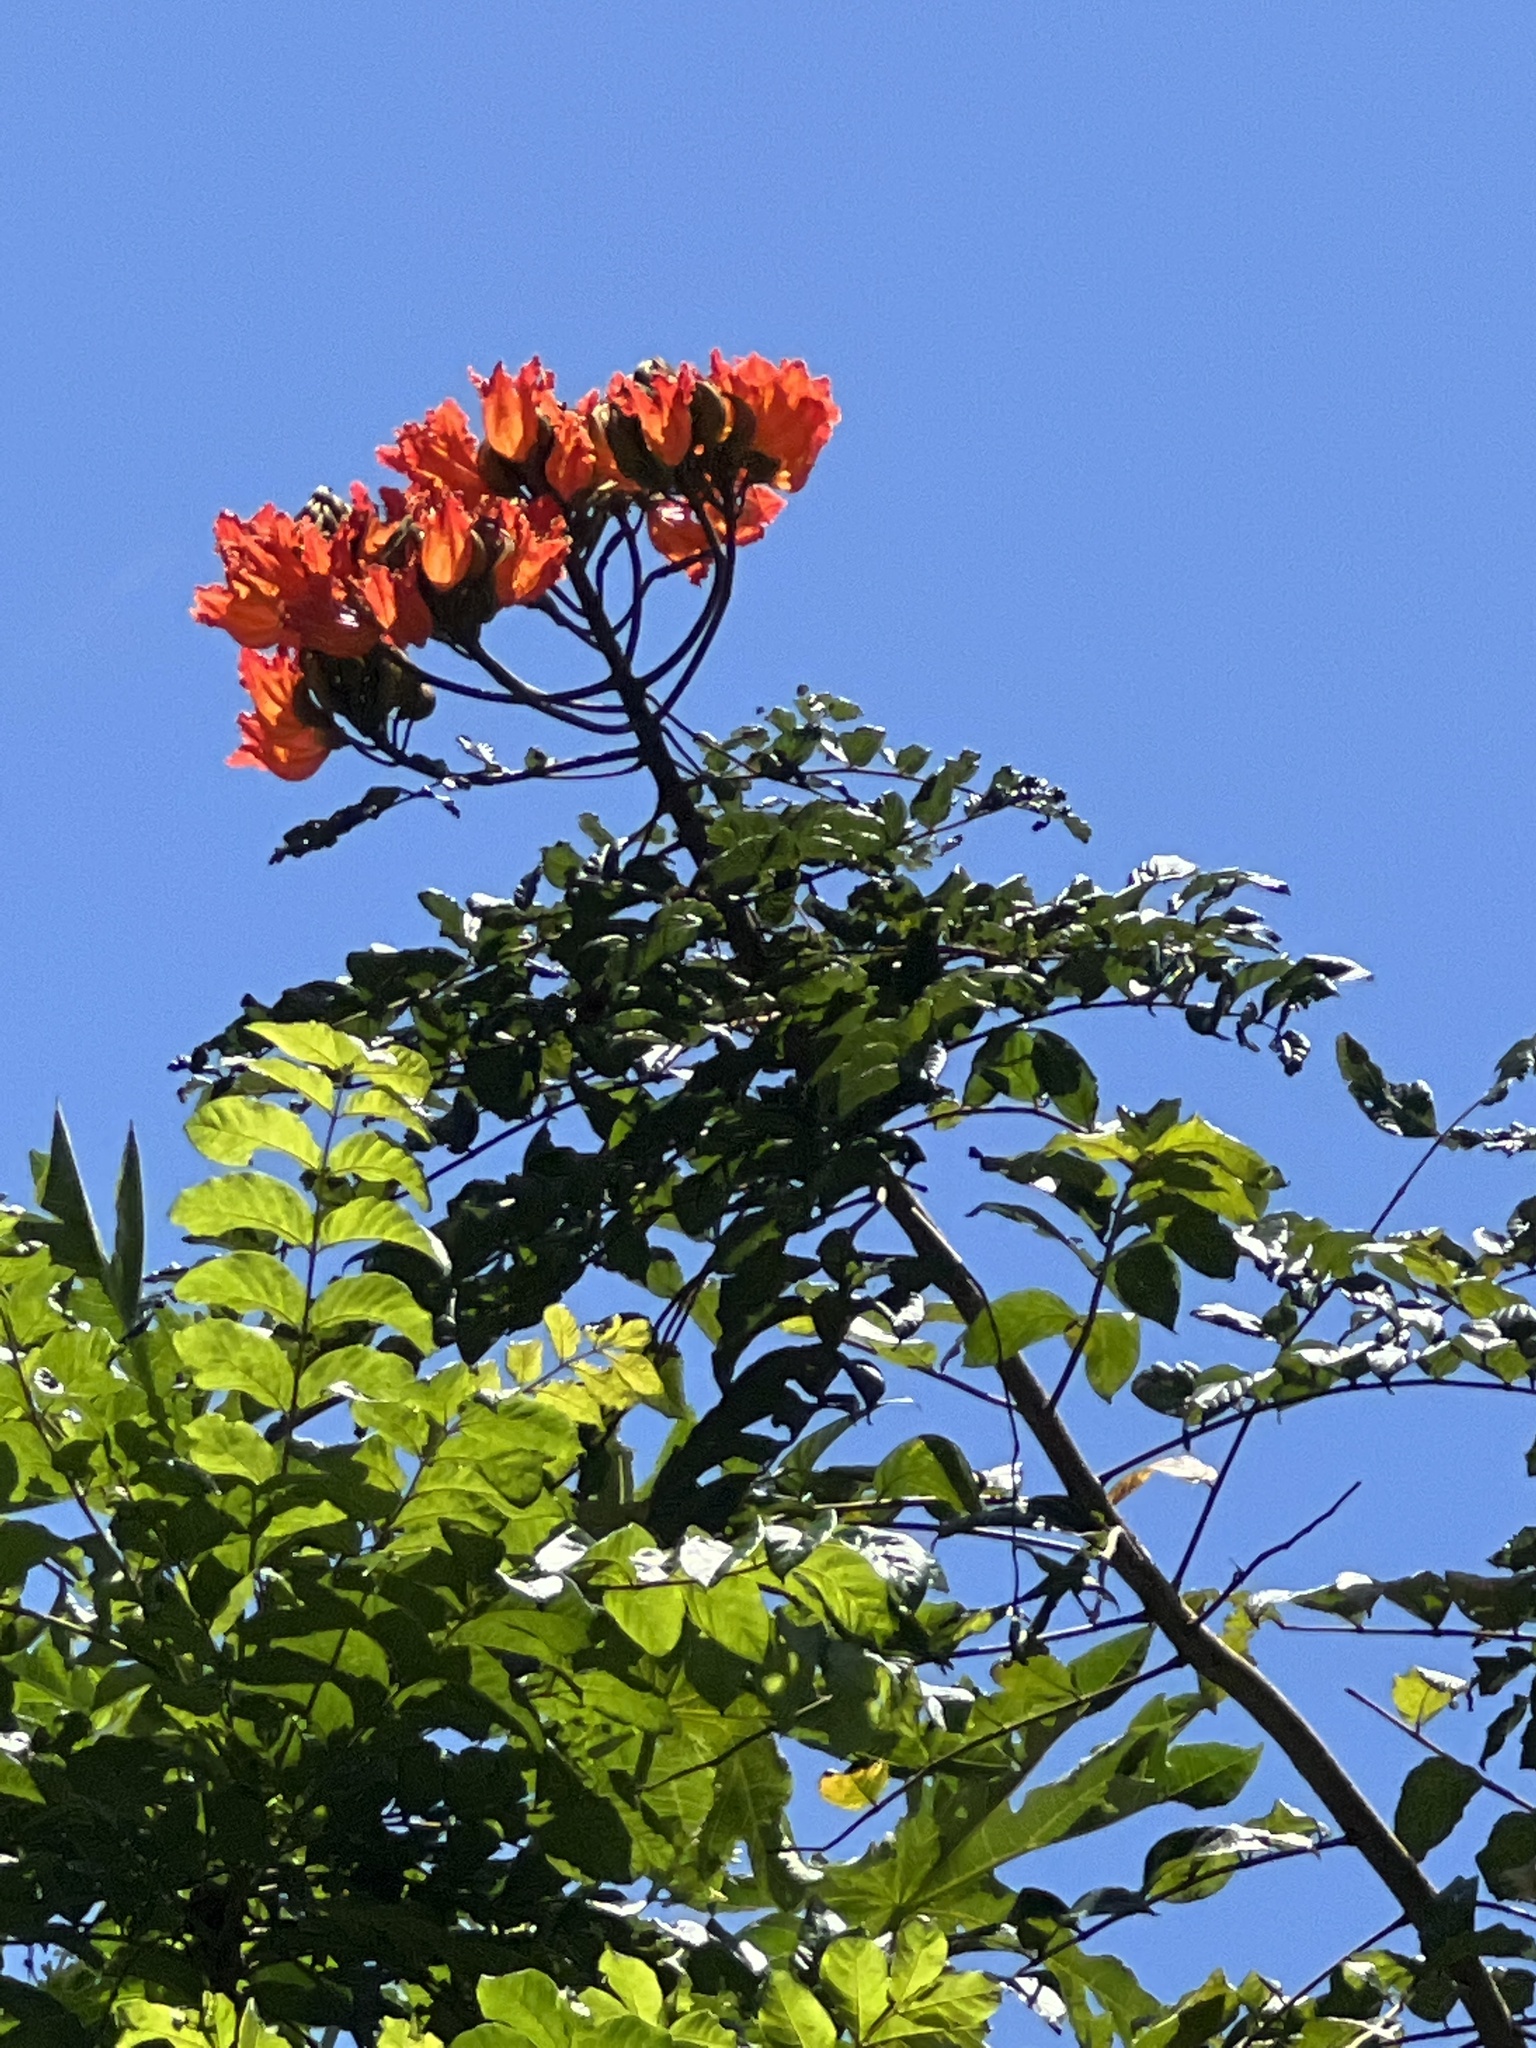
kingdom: Plantae
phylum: Tracheophyta
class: Magnoliopsida
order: Lamiales
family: Bignoniaceae
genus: Spathodea
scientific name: Spathodea campanulata
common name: African tuliptree
